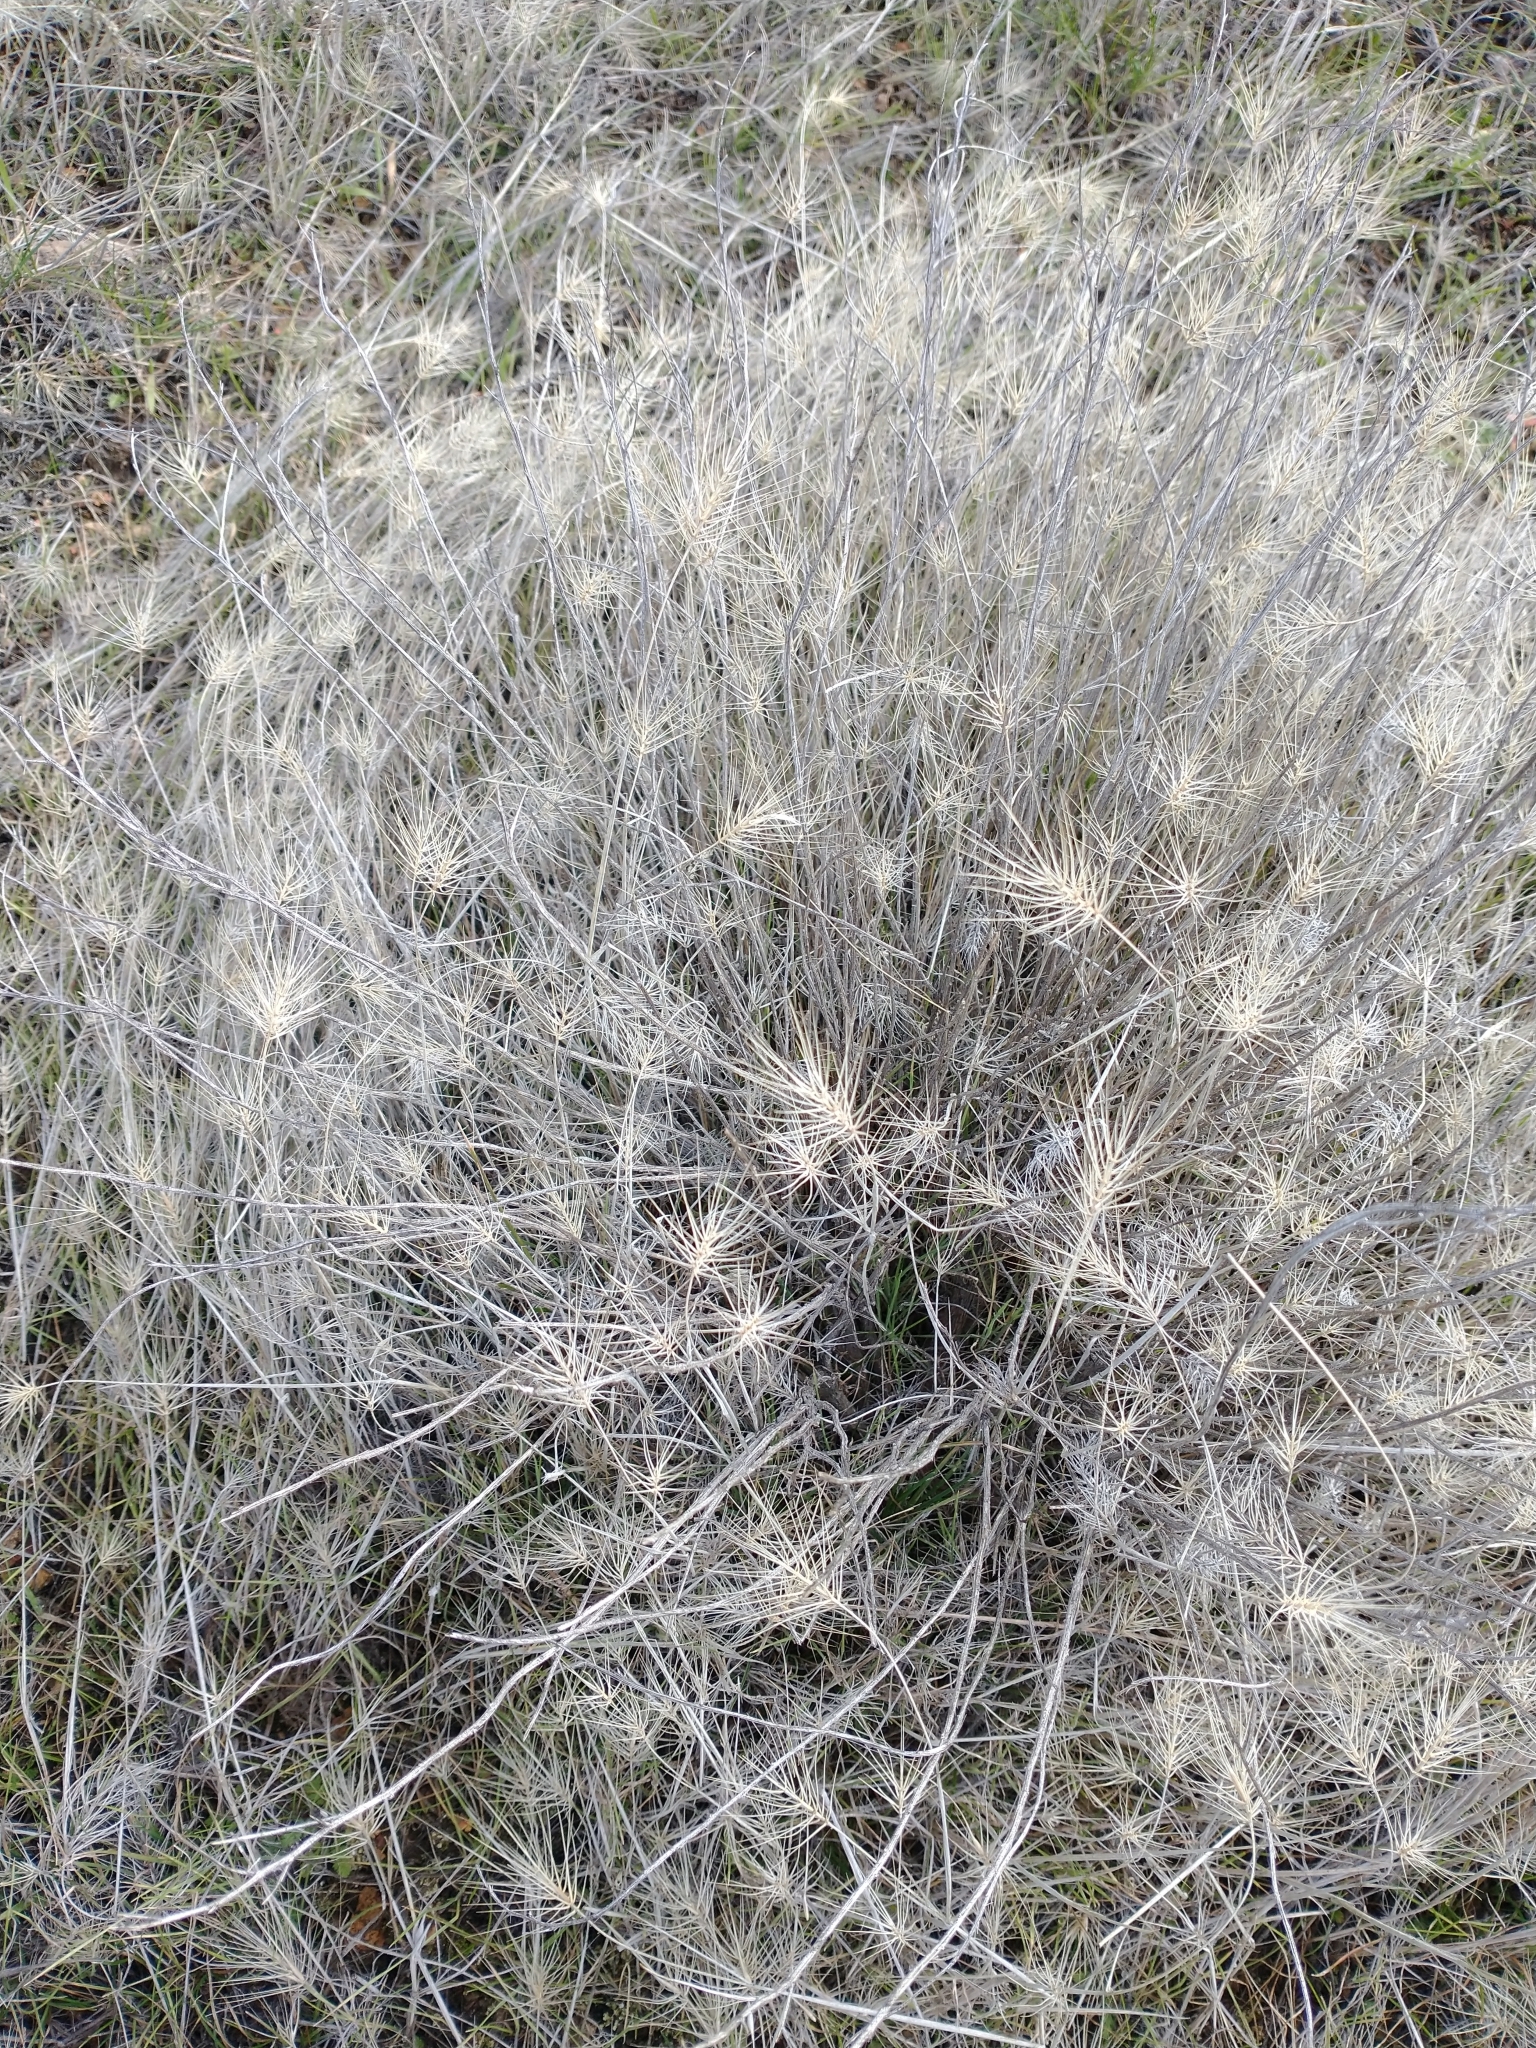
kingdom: Plantae
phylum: Tracheophyta
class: Liliopsida
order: Poales
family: Poaceae
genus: Taeniatherum
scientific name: Taeniatherum caput-medusae
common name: Medusahead
